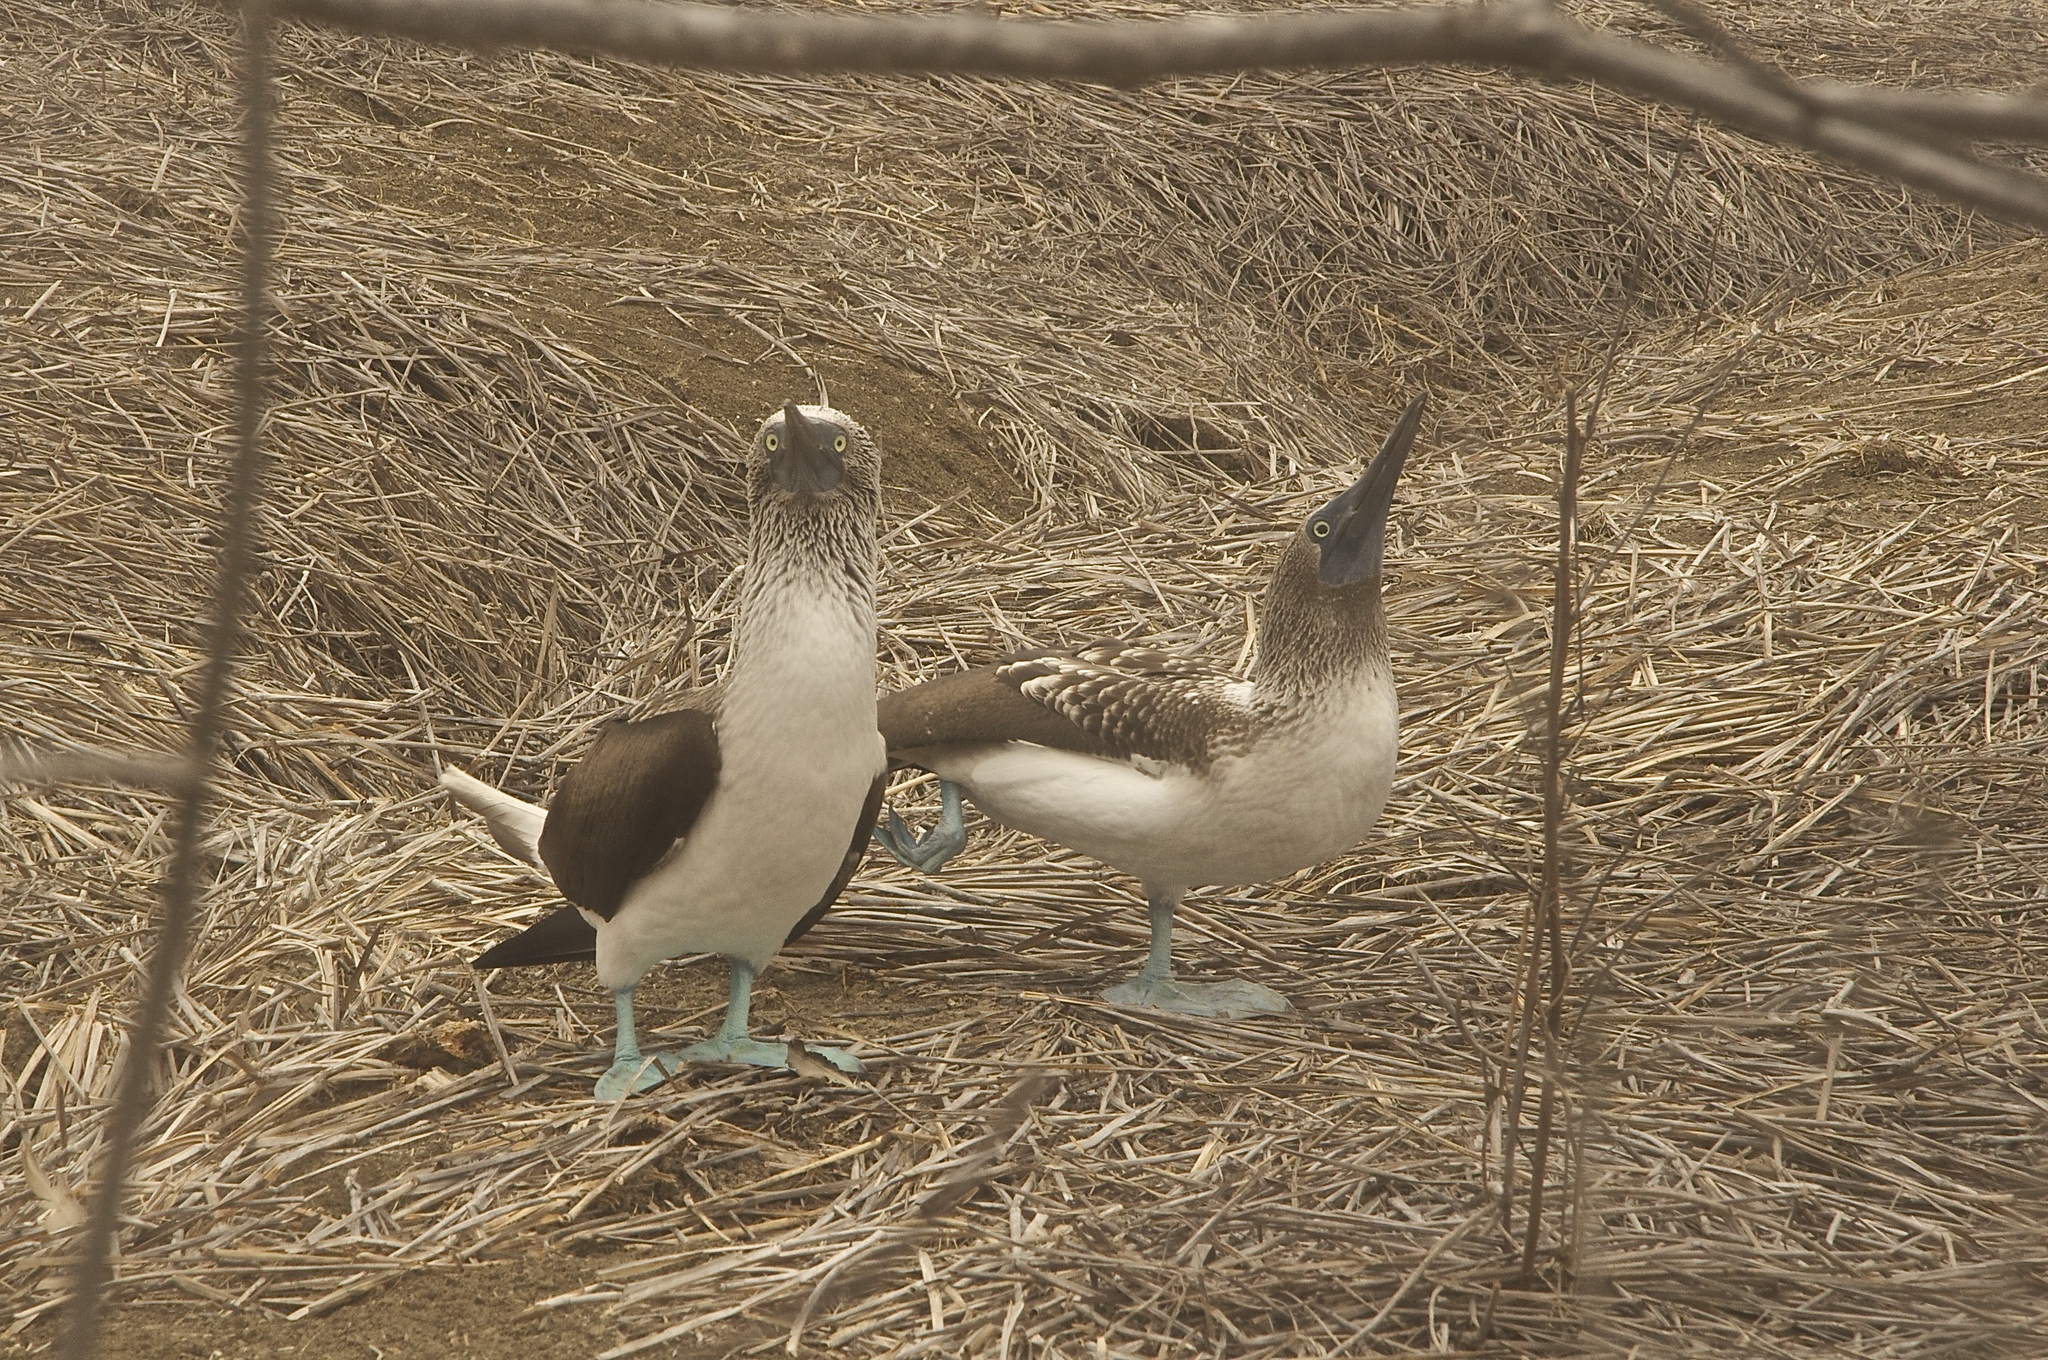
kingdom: Animalia
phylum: Chordata
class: Aves
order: Suliformes
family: Sulidae
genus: Sula
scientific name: Sula nebouxii
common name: Blue-footed booby
